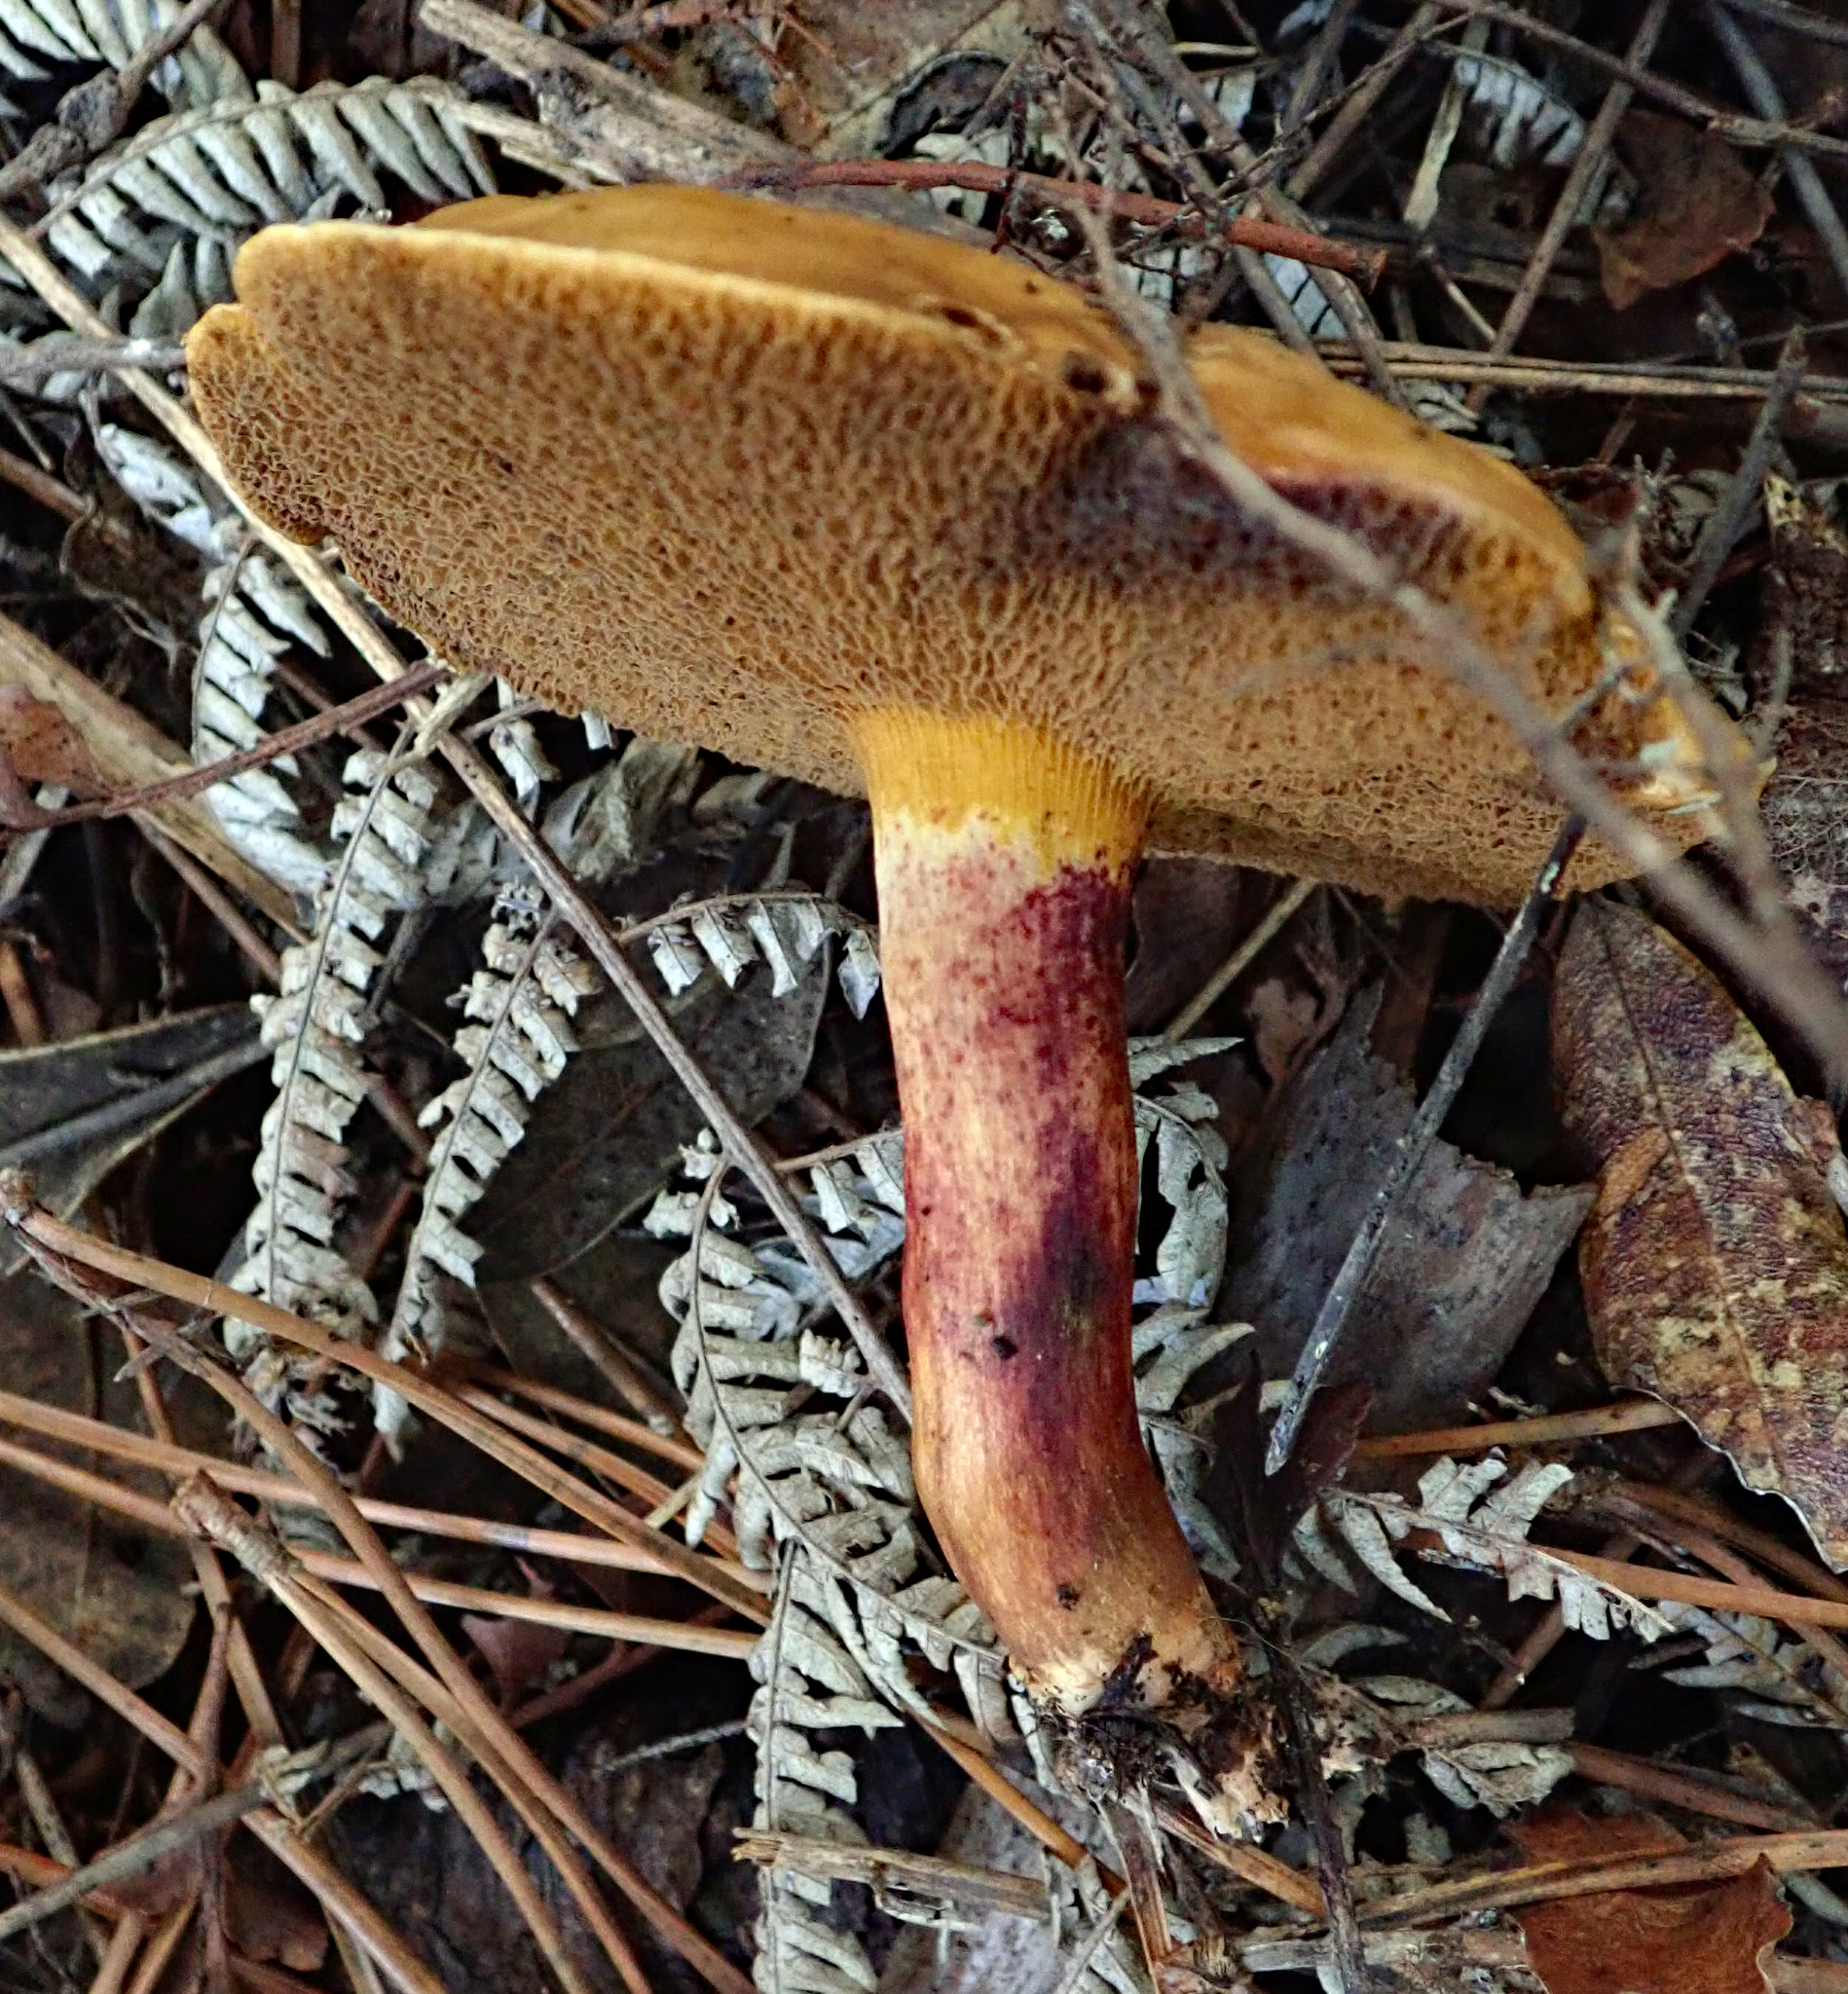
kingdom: Fungi
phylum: Basidiomycota
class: Agaricomycetes
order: Boletales
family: Suillaceae
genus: Suillus
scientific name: Suillus bovinus
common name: Bovine bolete
